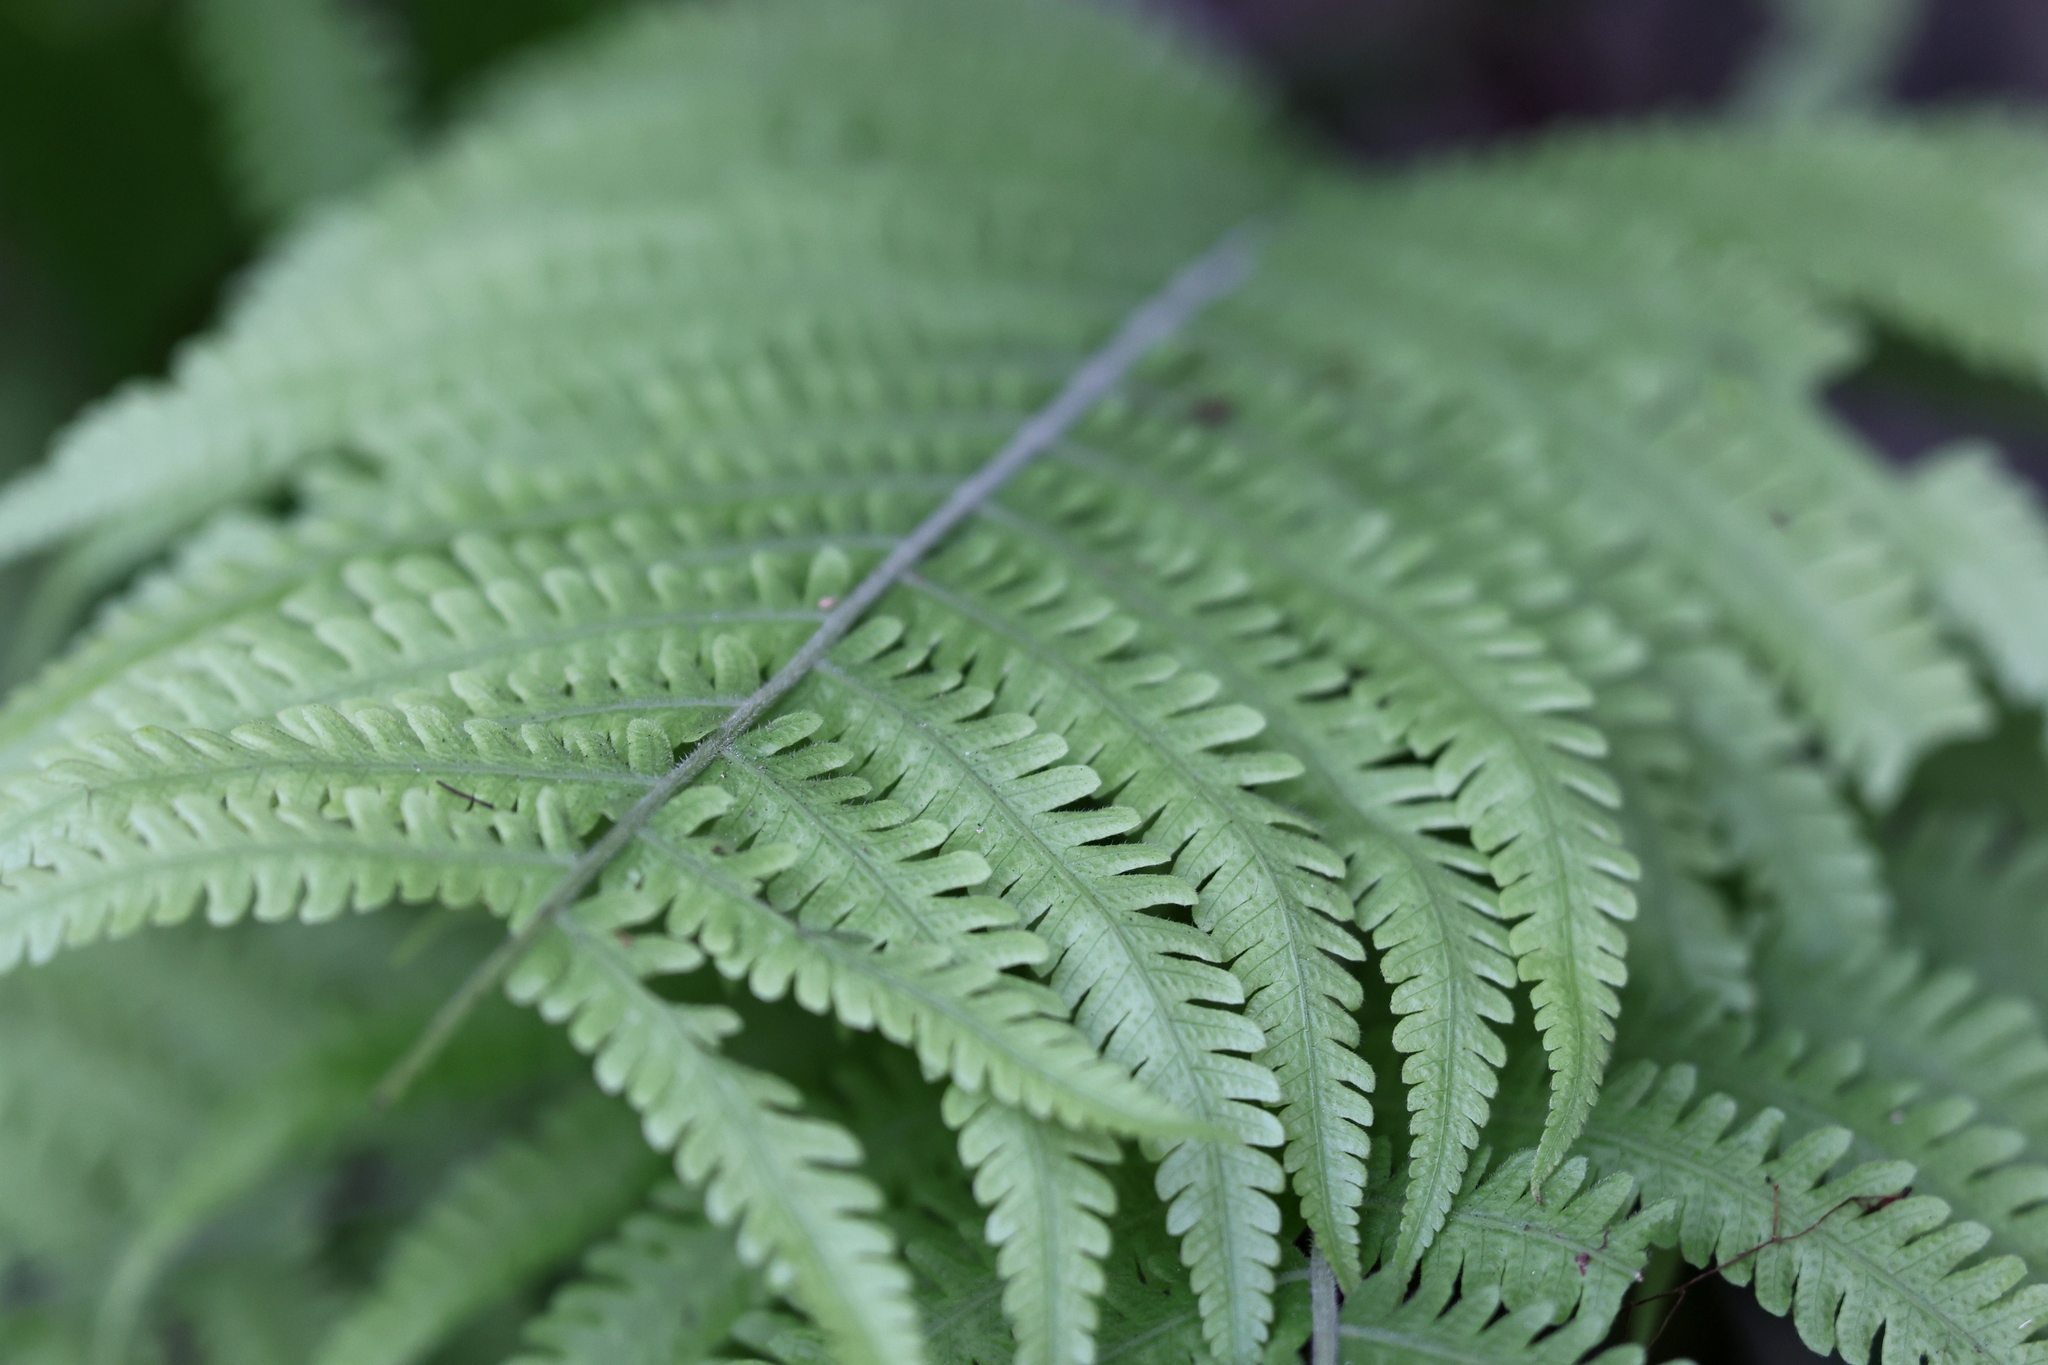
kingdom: Plantae
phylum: Tracheophyta
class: Polypodiopsida
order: Polypodiales
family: Thelypteridaceae
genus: Coryphopteris
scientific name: Coryphopteris angulariloba
